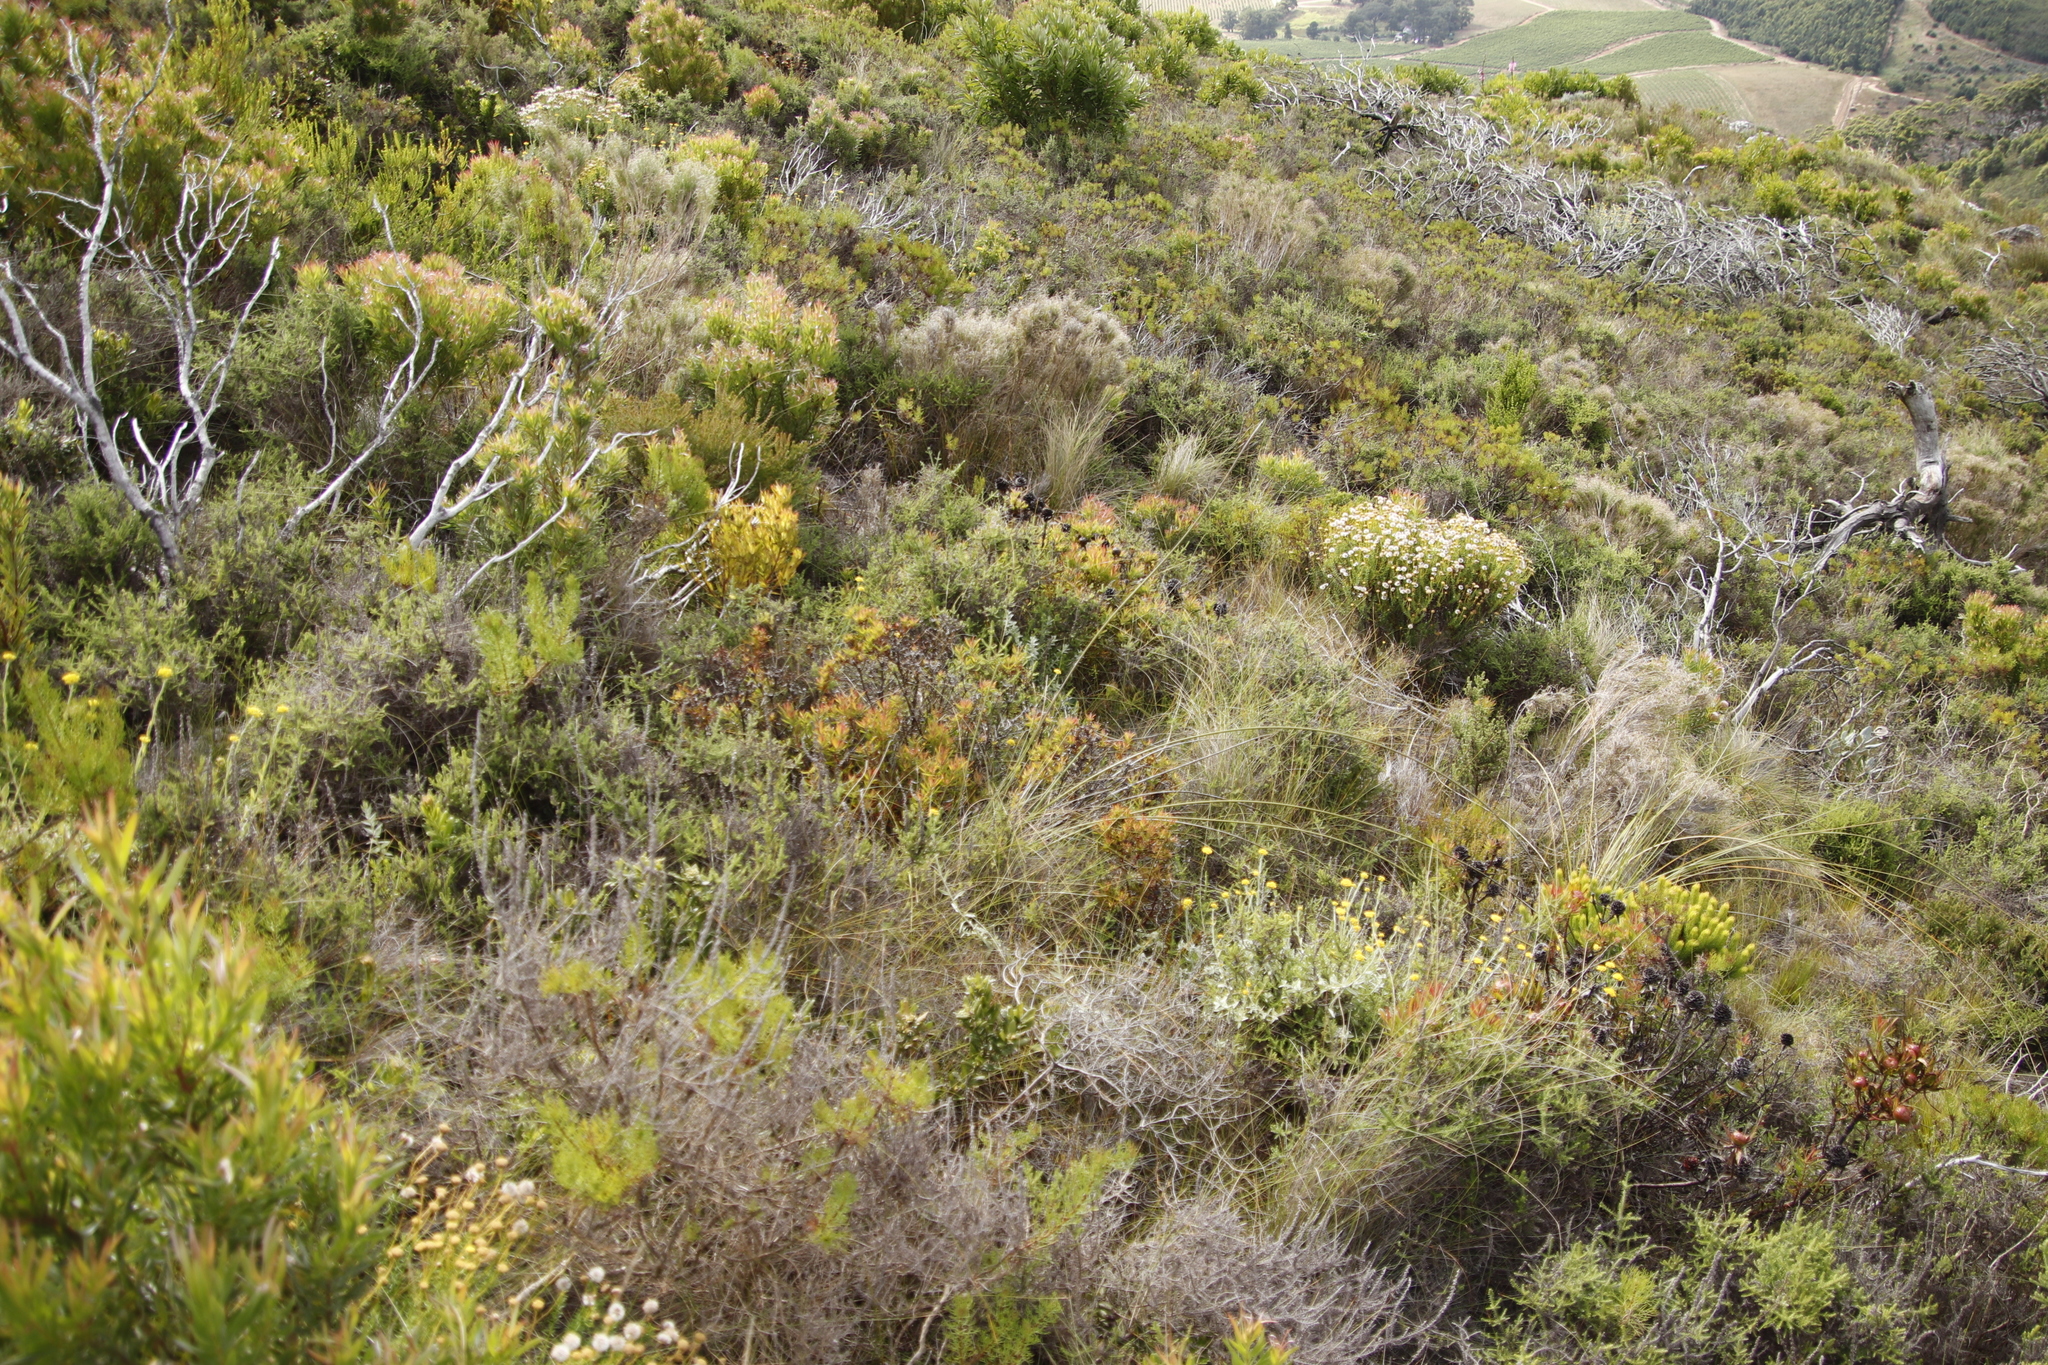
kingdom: Plantae
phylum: Tracheophyta
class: Magnoliopsida
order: Proteales
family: Proteaceae
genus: Leucadendron
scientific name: Leucadendron spissifolium
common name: Spear-leaf conebush
